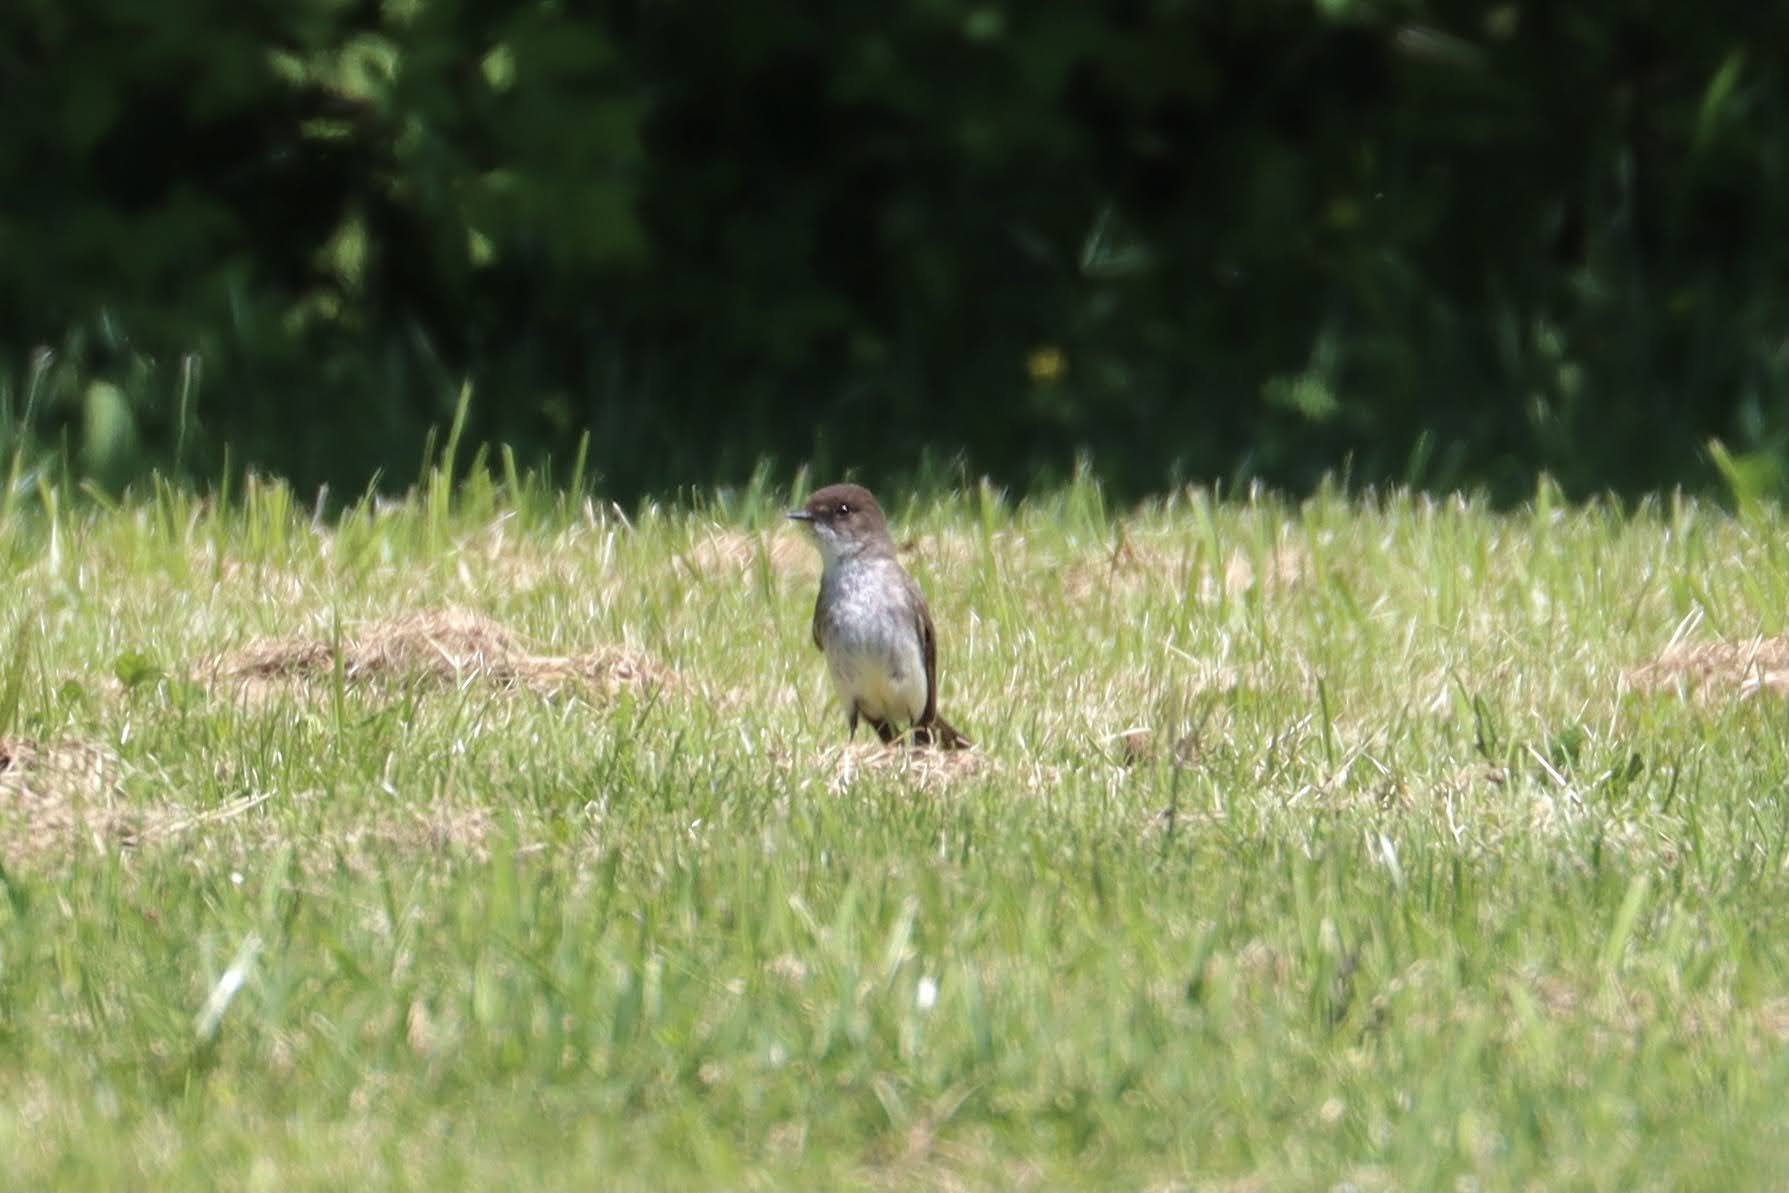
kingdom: Animalia
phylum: Chordata
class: Aves
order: Passeriformes
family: Tyrannidae
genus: Sayornis
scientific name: Sayornis phoebe
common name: Eastern phoebe
